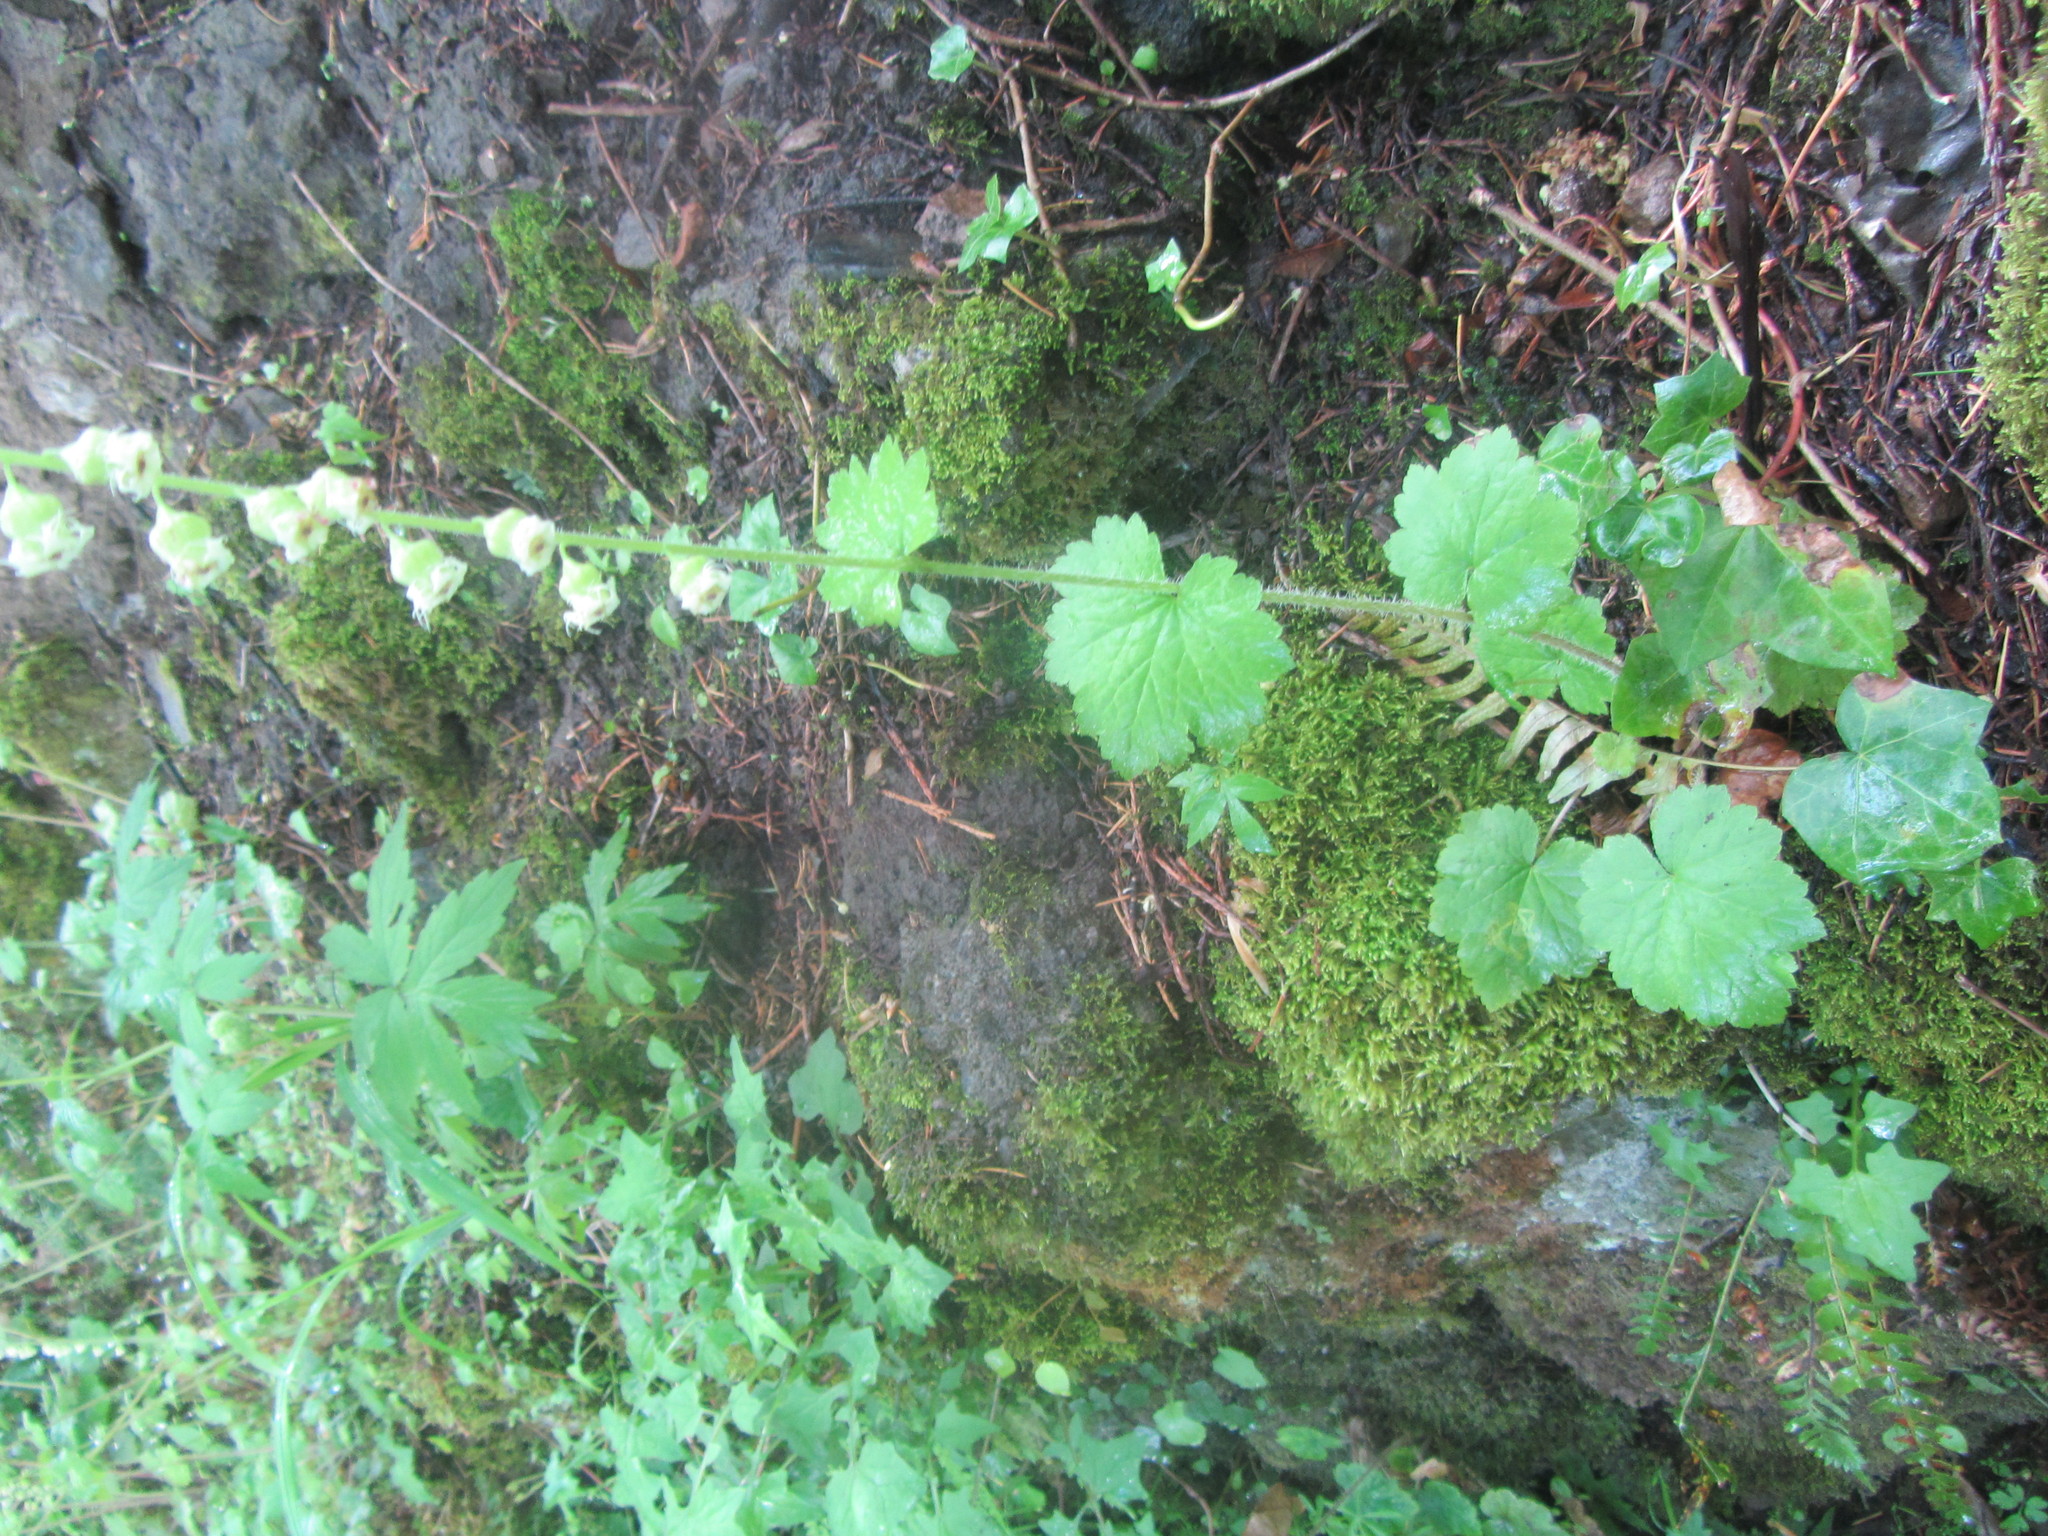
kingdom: Plantae
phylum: Tracheophyta
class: Magnoliopsida
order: Saxifragales
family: Saxifragaceae
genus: Tellima
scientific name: Tellima grandiflora
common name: Fringecups
